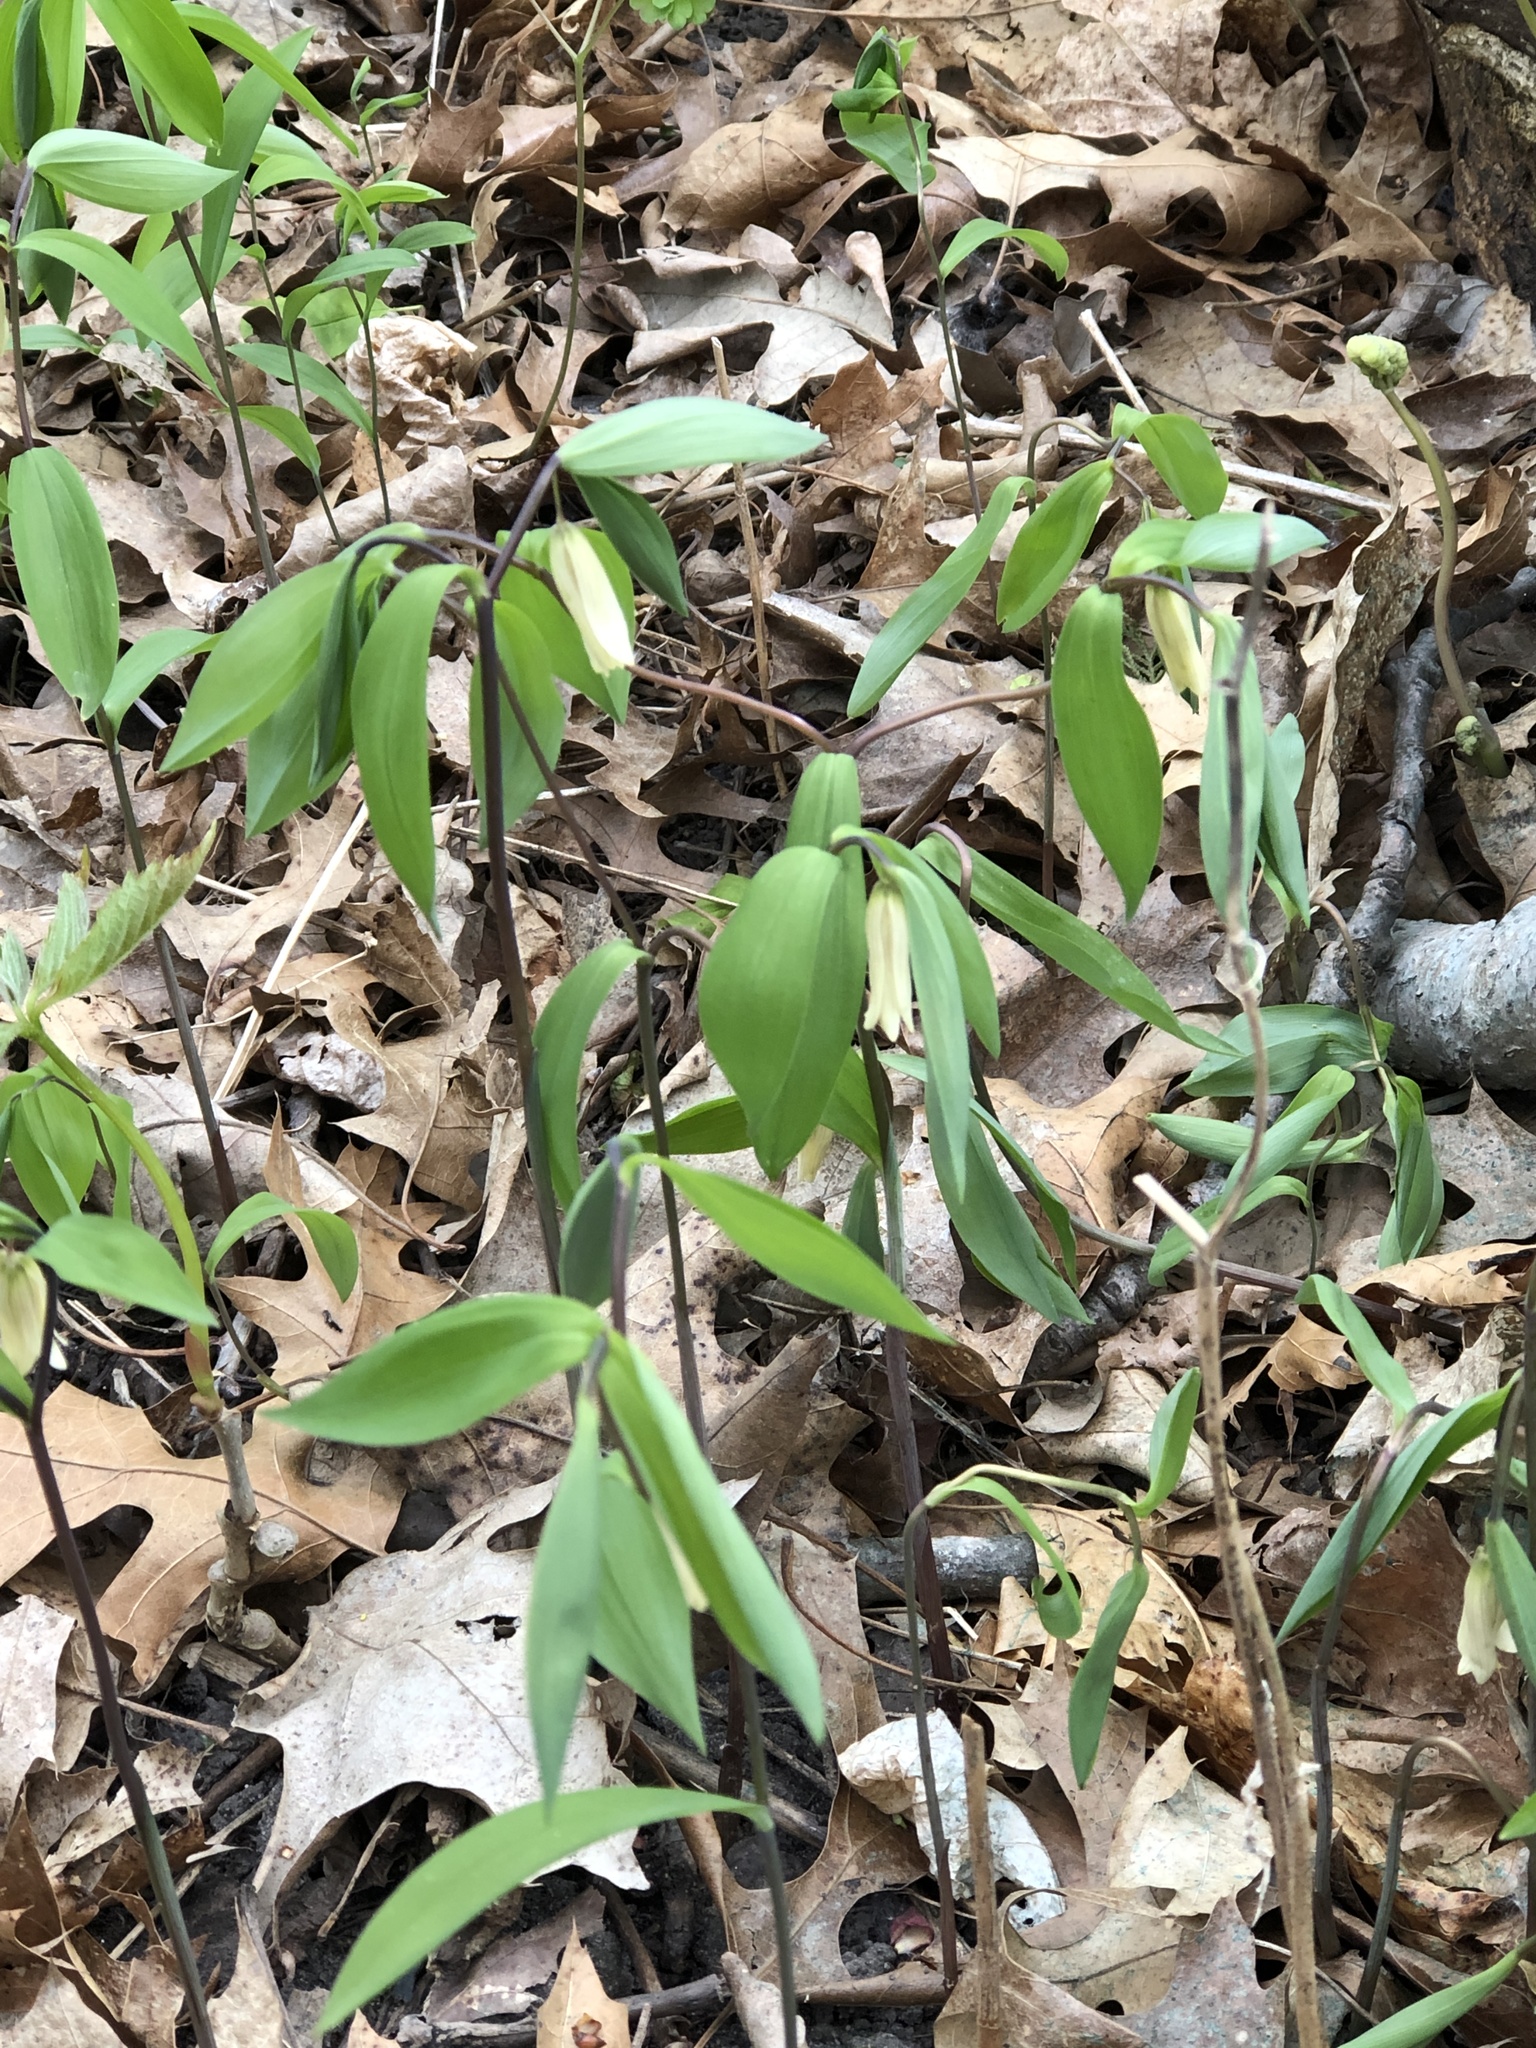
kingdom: Plantae
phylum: Tracheophyta
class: Liliopsida
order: Liliales
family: Colchicaceae
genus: Uvularia
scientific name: Uvularia sessilifolia
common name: Straw-lily
